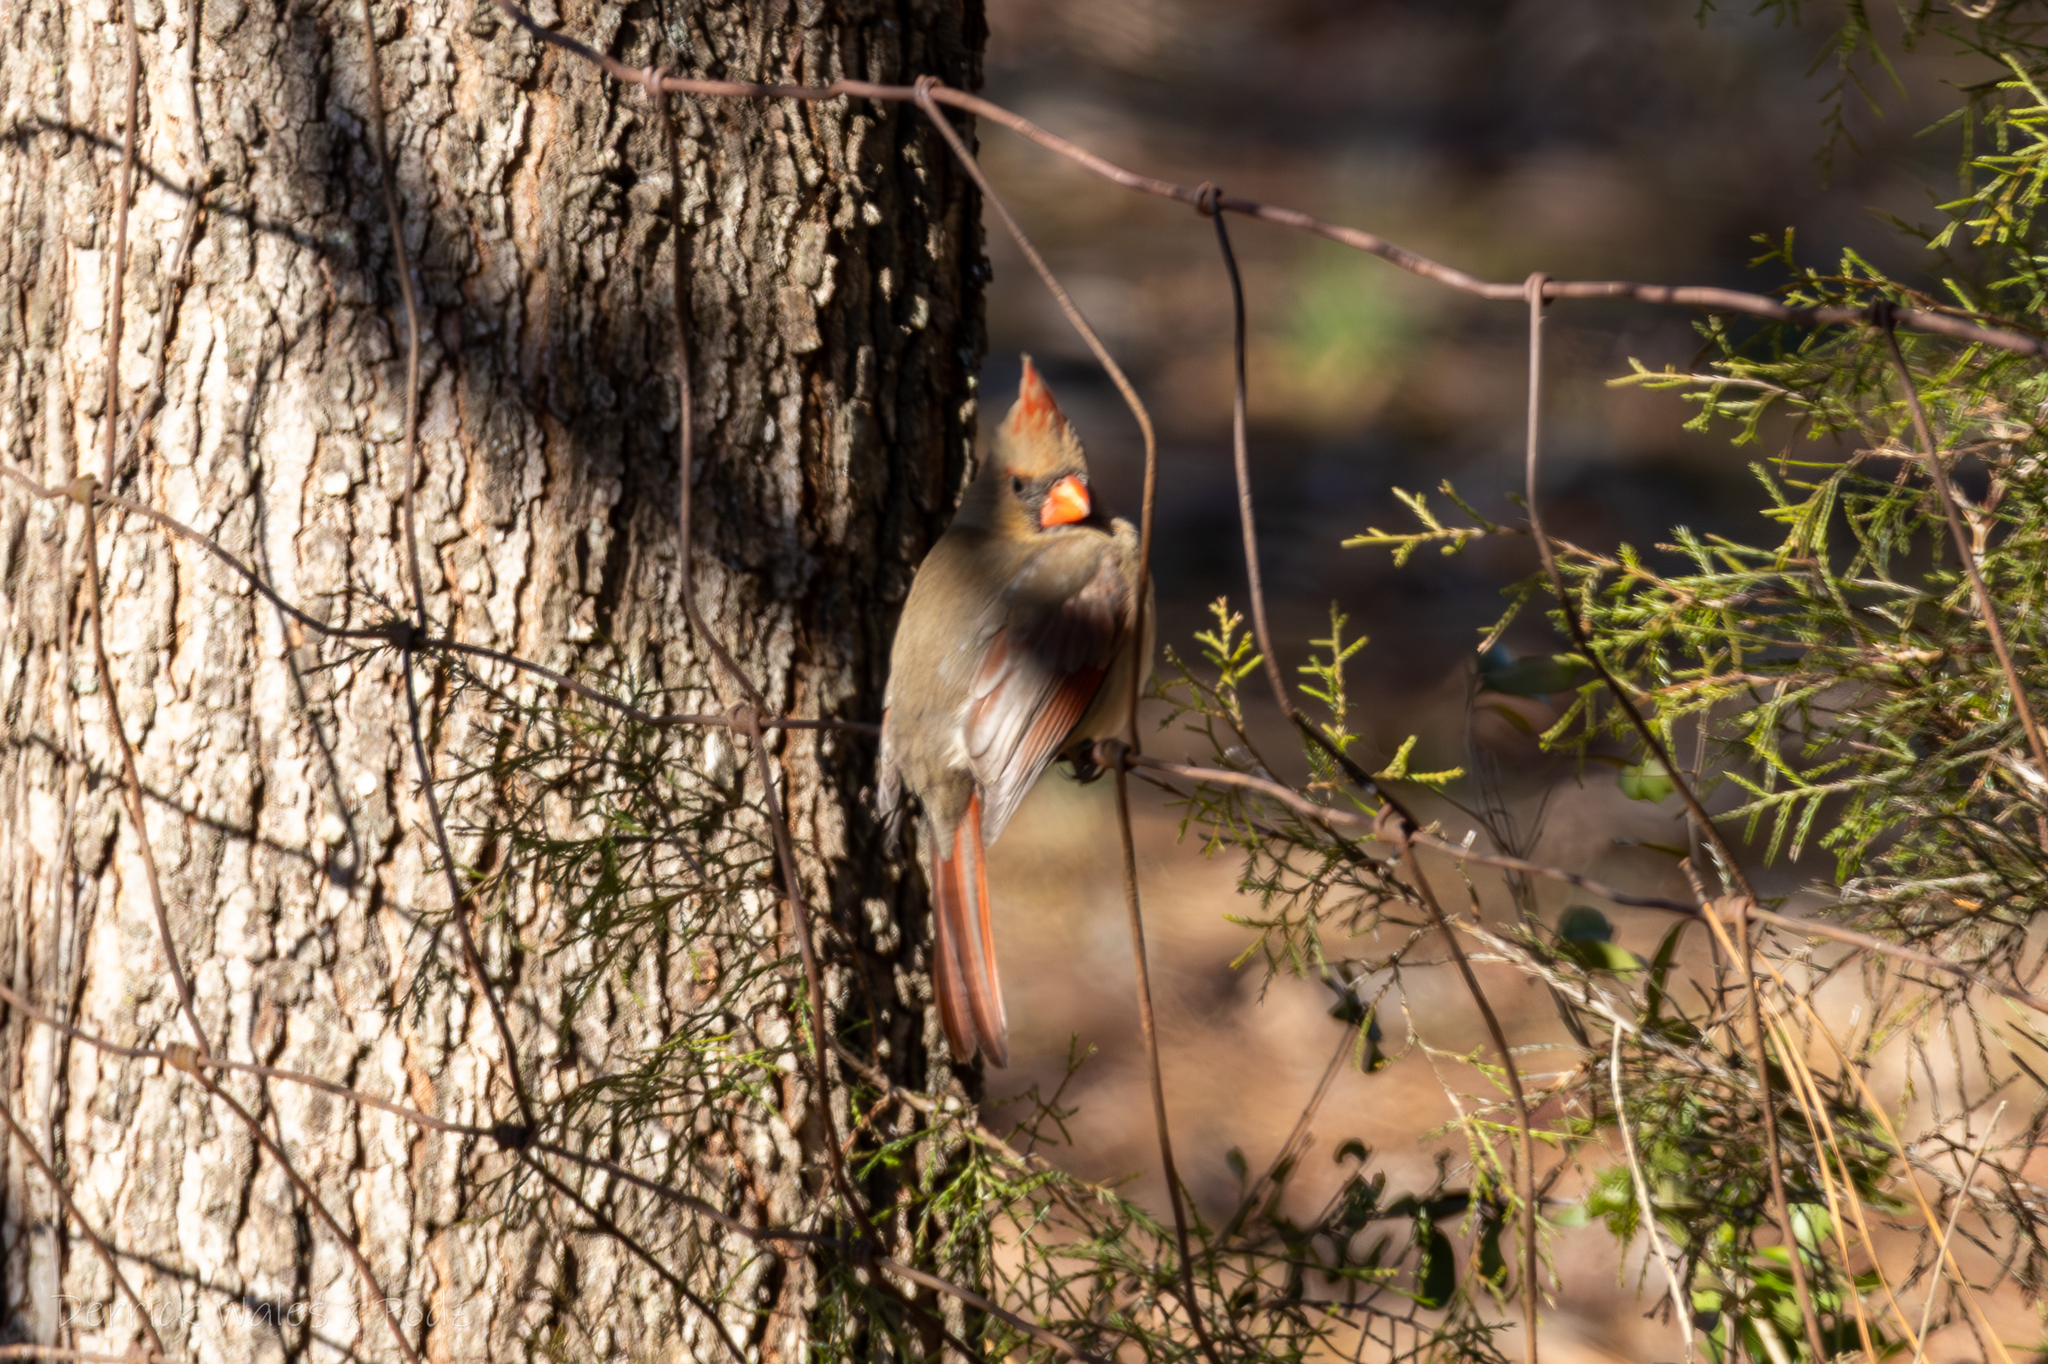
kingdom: Animalia
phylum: Chordata
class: Aves
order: Passeriformes
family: Cardinalidae
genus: Cardinalis
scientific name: Cardinalis cardinalis
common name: Northern cardinal
